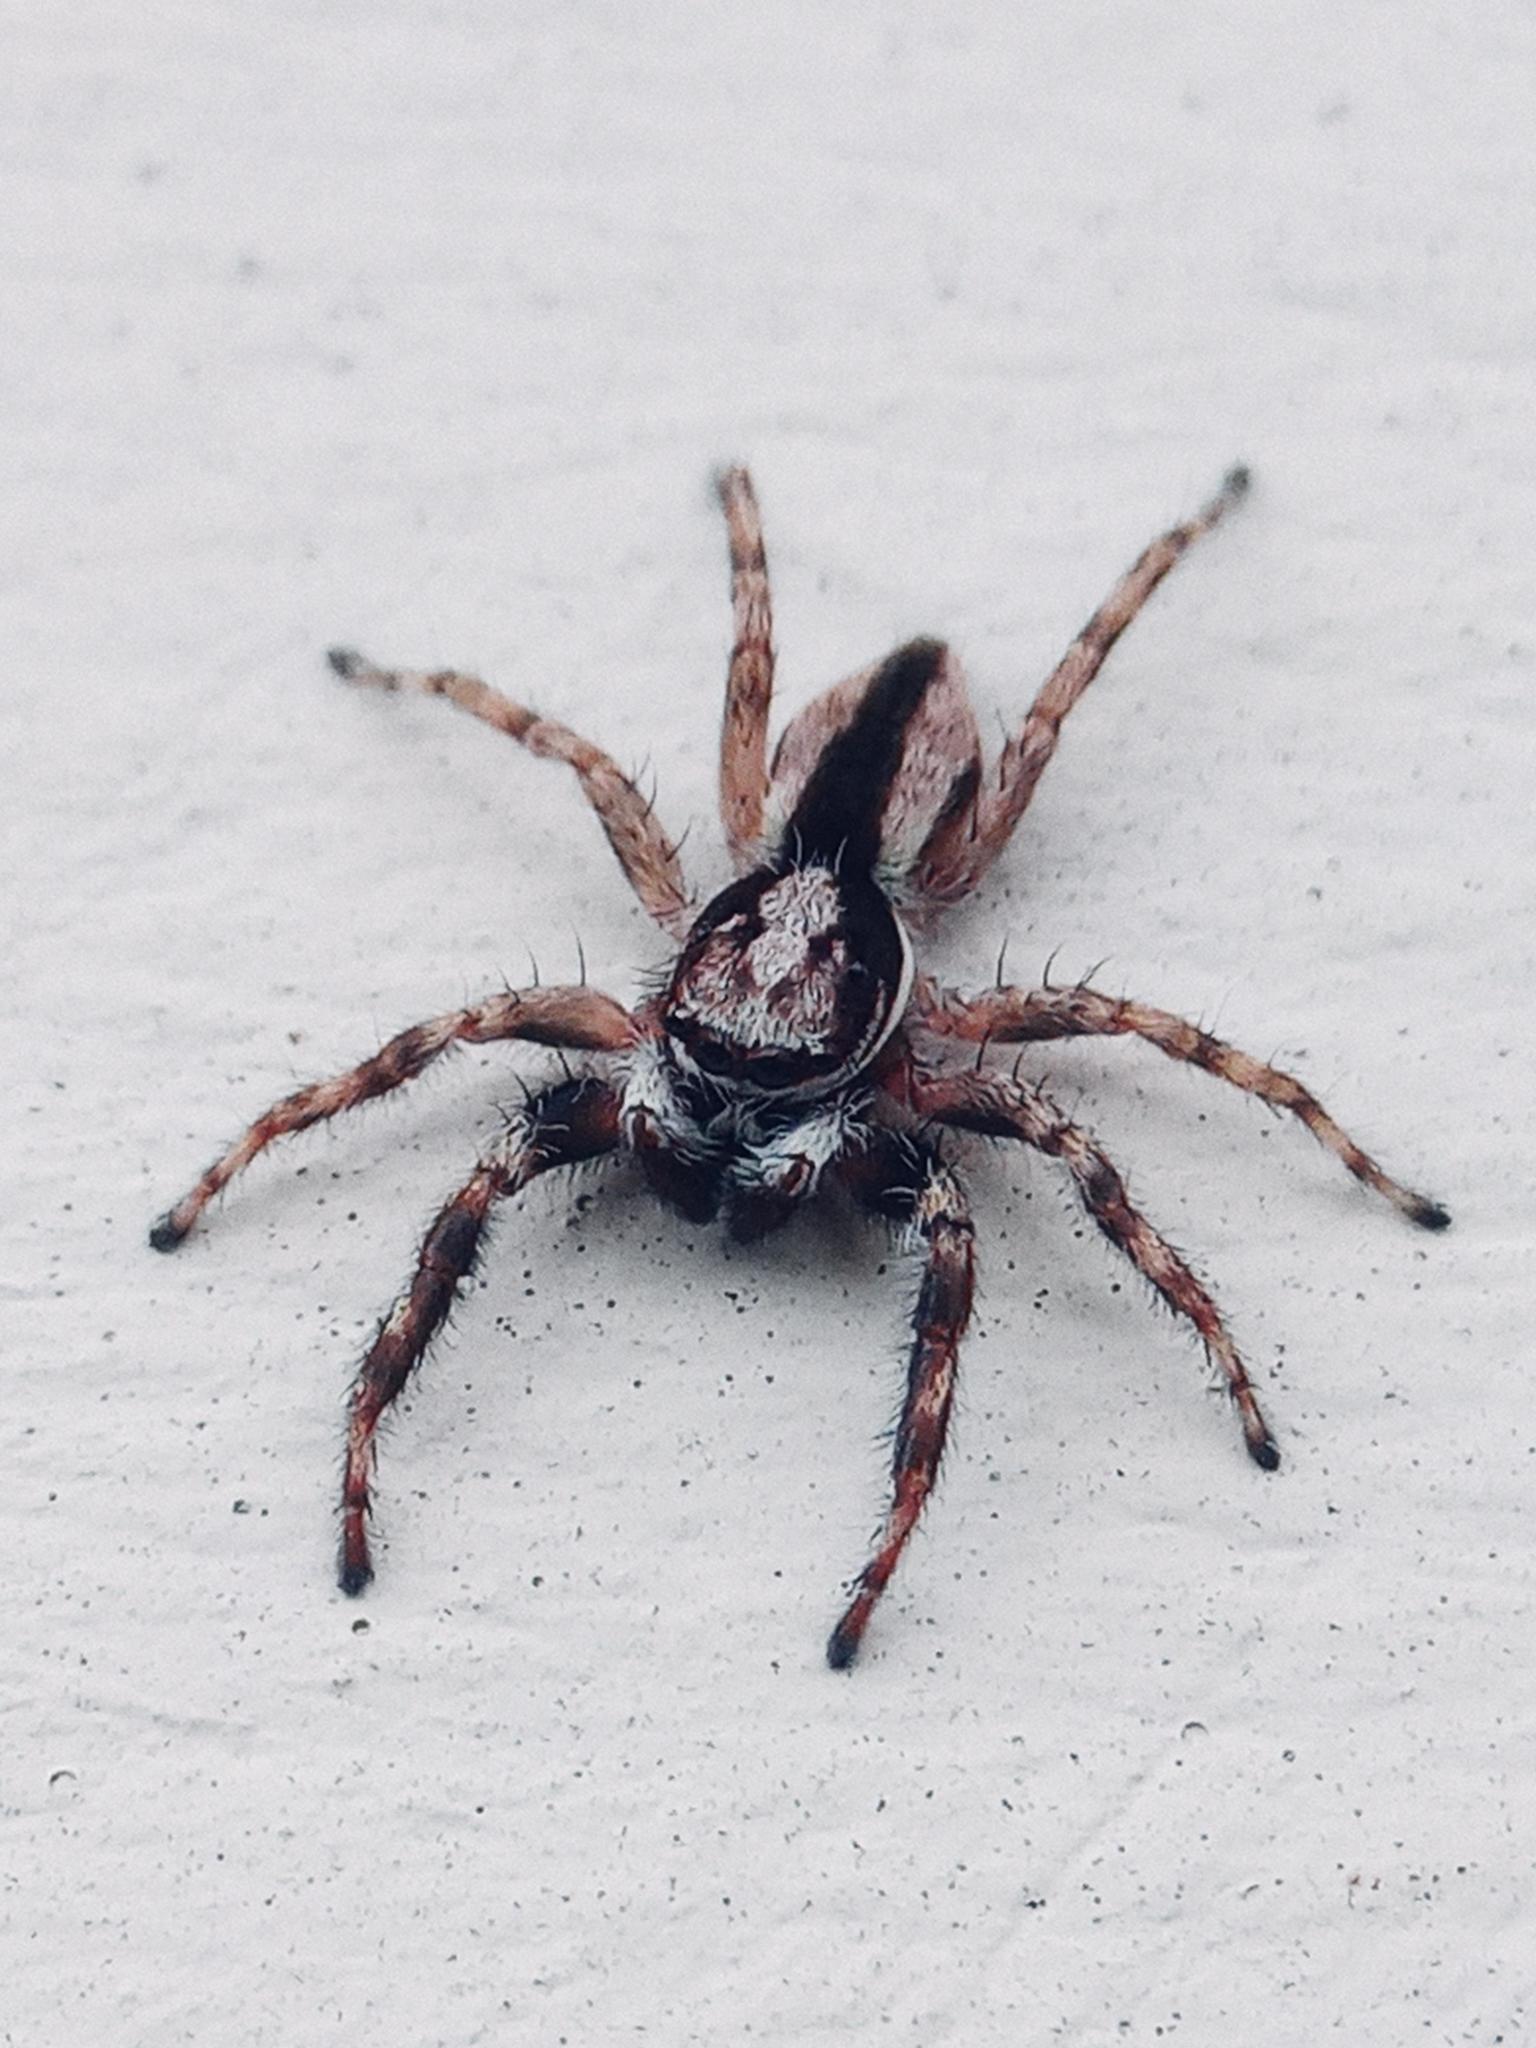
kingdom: Animalia
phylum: Arthropoda
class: Arachnida
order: Araneae
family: Salticidae
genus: Menemerus
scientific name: Menemerus bivittatus
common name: Gray wall jumper
